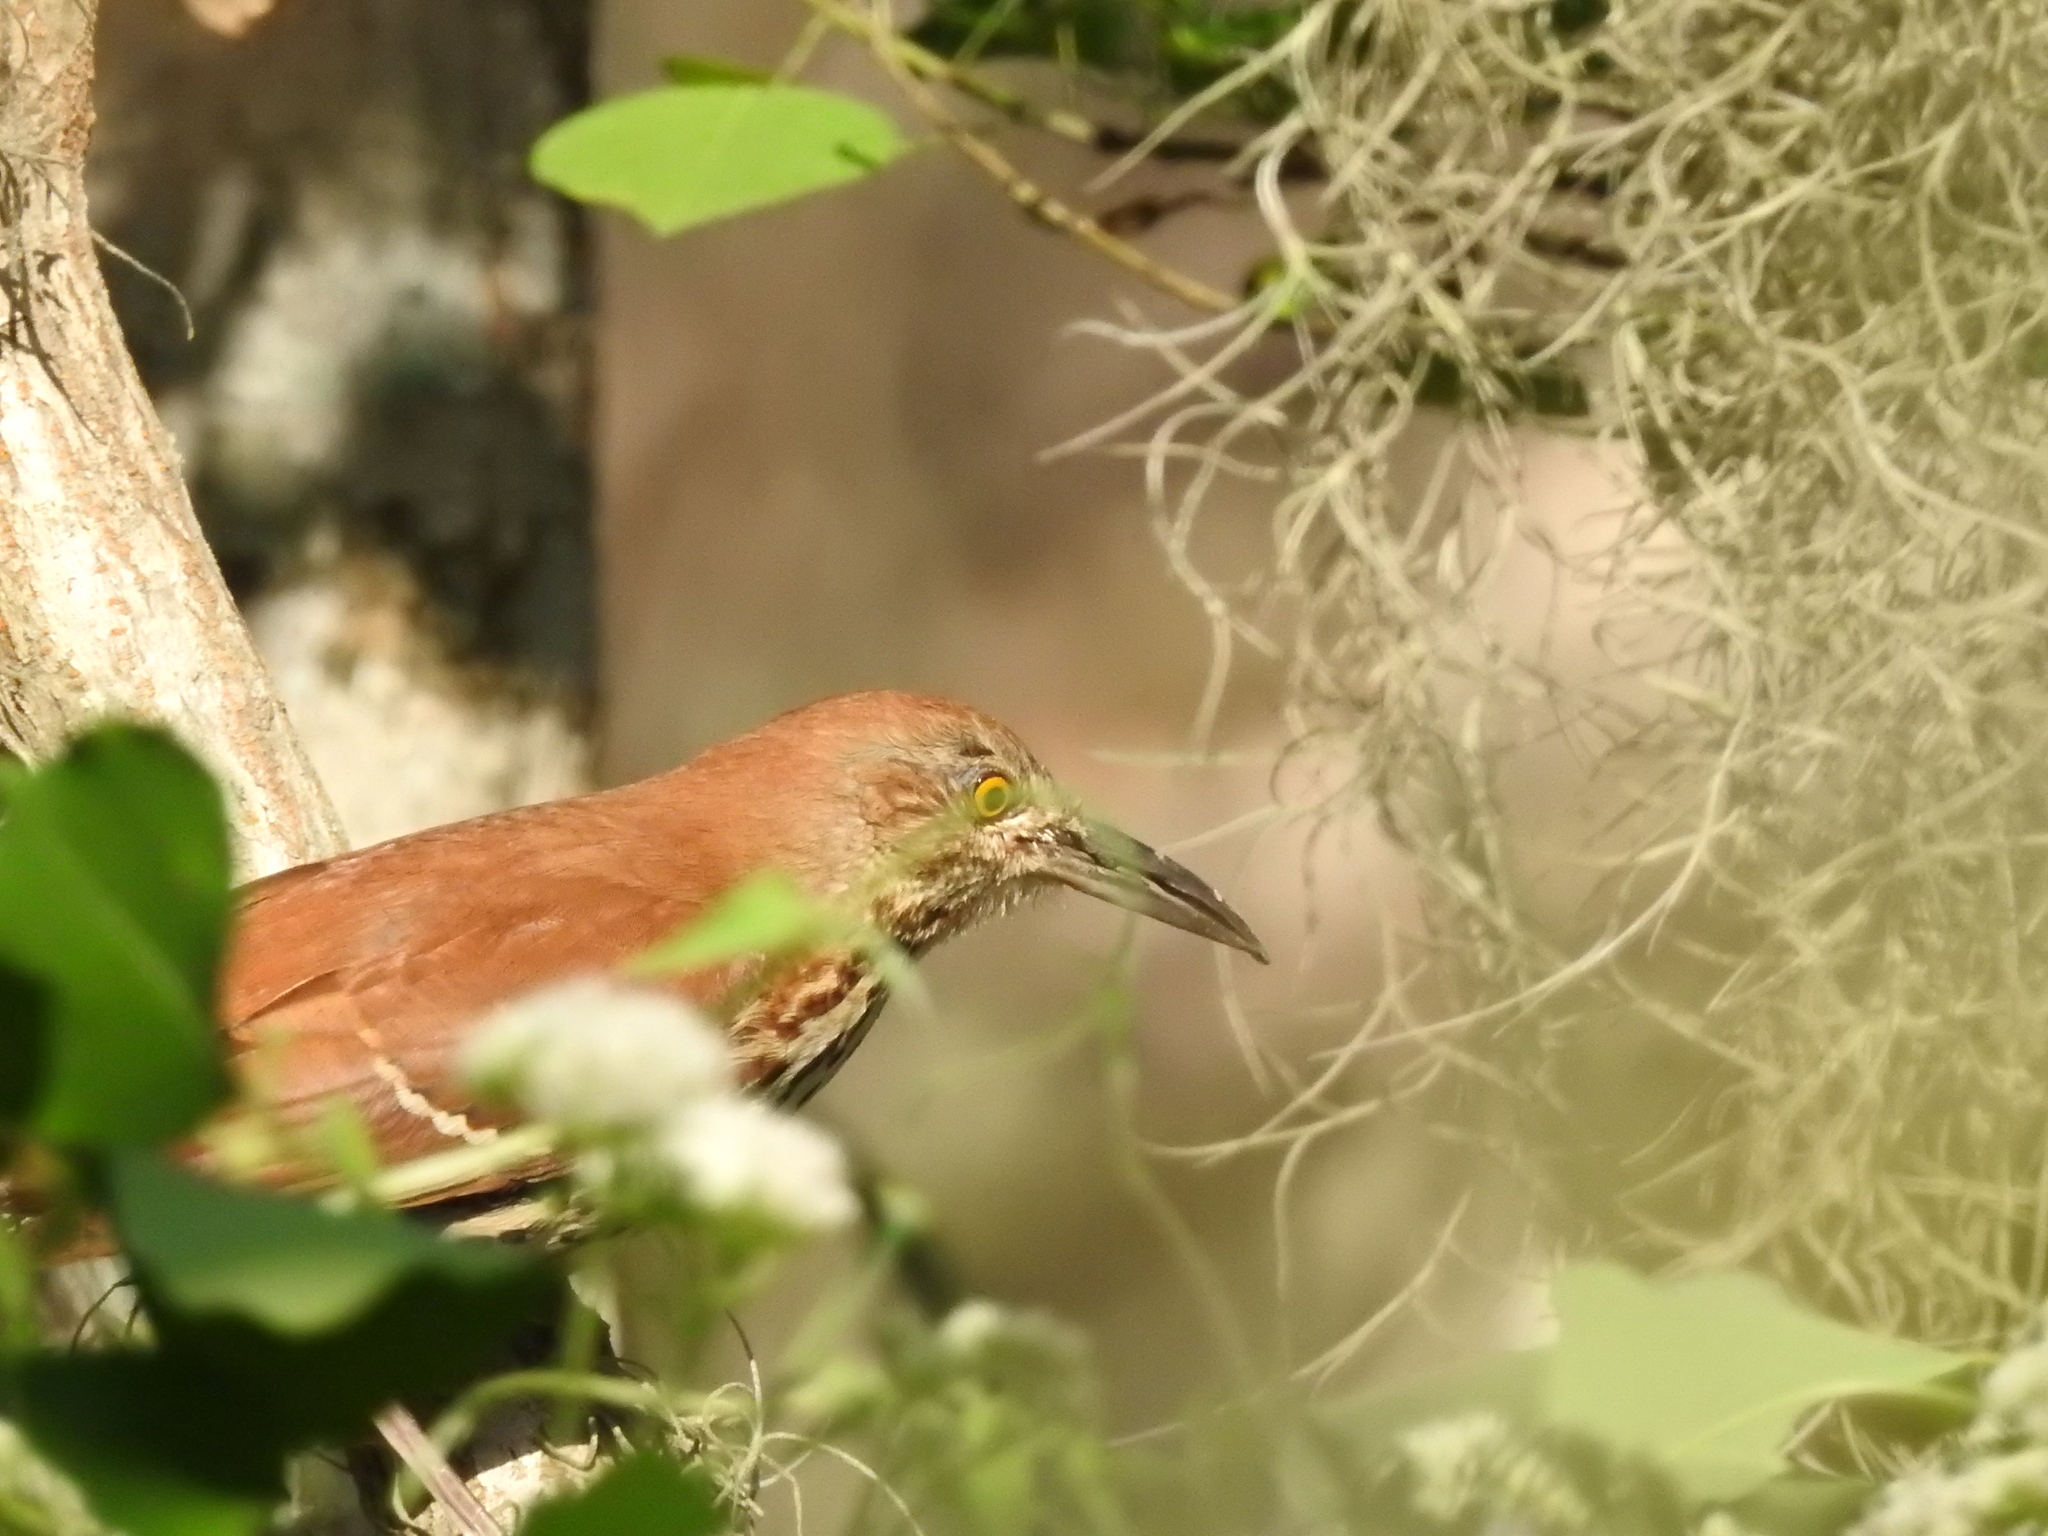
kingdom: Animalia
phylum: Chordata
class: Aves
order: Passeriformes
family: Mimidae
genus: Toxostoma
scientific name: Toxostoma rufum
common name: Brown thrasher
